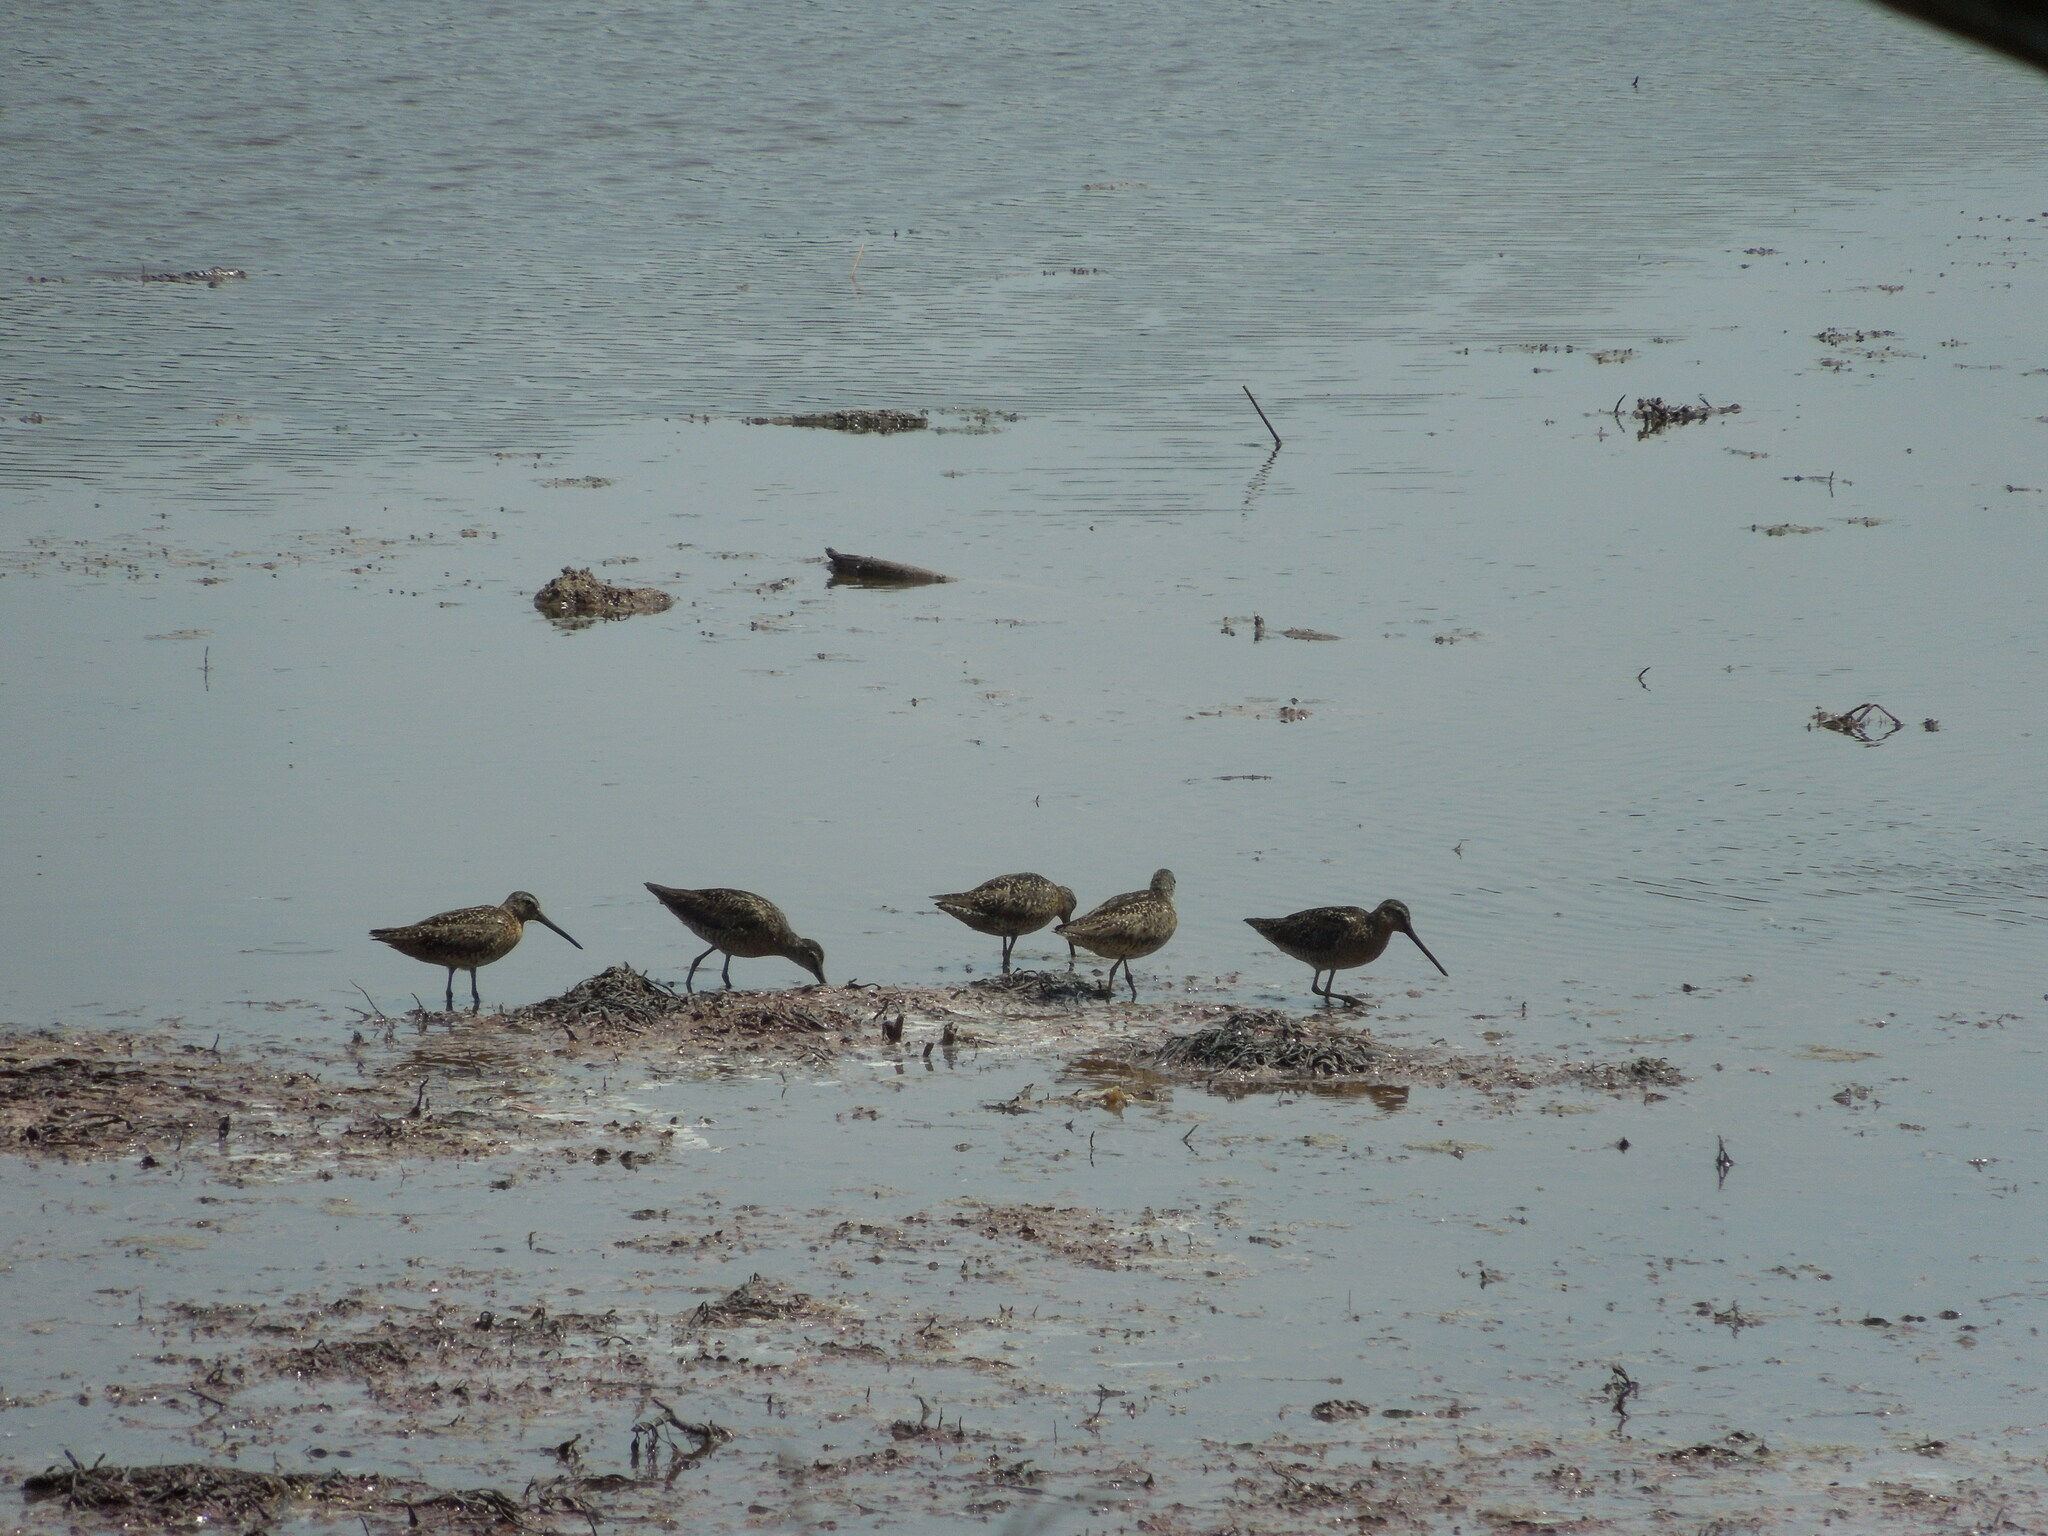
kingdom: Animalia
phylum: Chordata
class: Aves
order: Charadriiformes
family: Scolopacidae
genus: Limnodromus
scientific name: Limnodromus griseus
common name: Short-billed dowitcher
